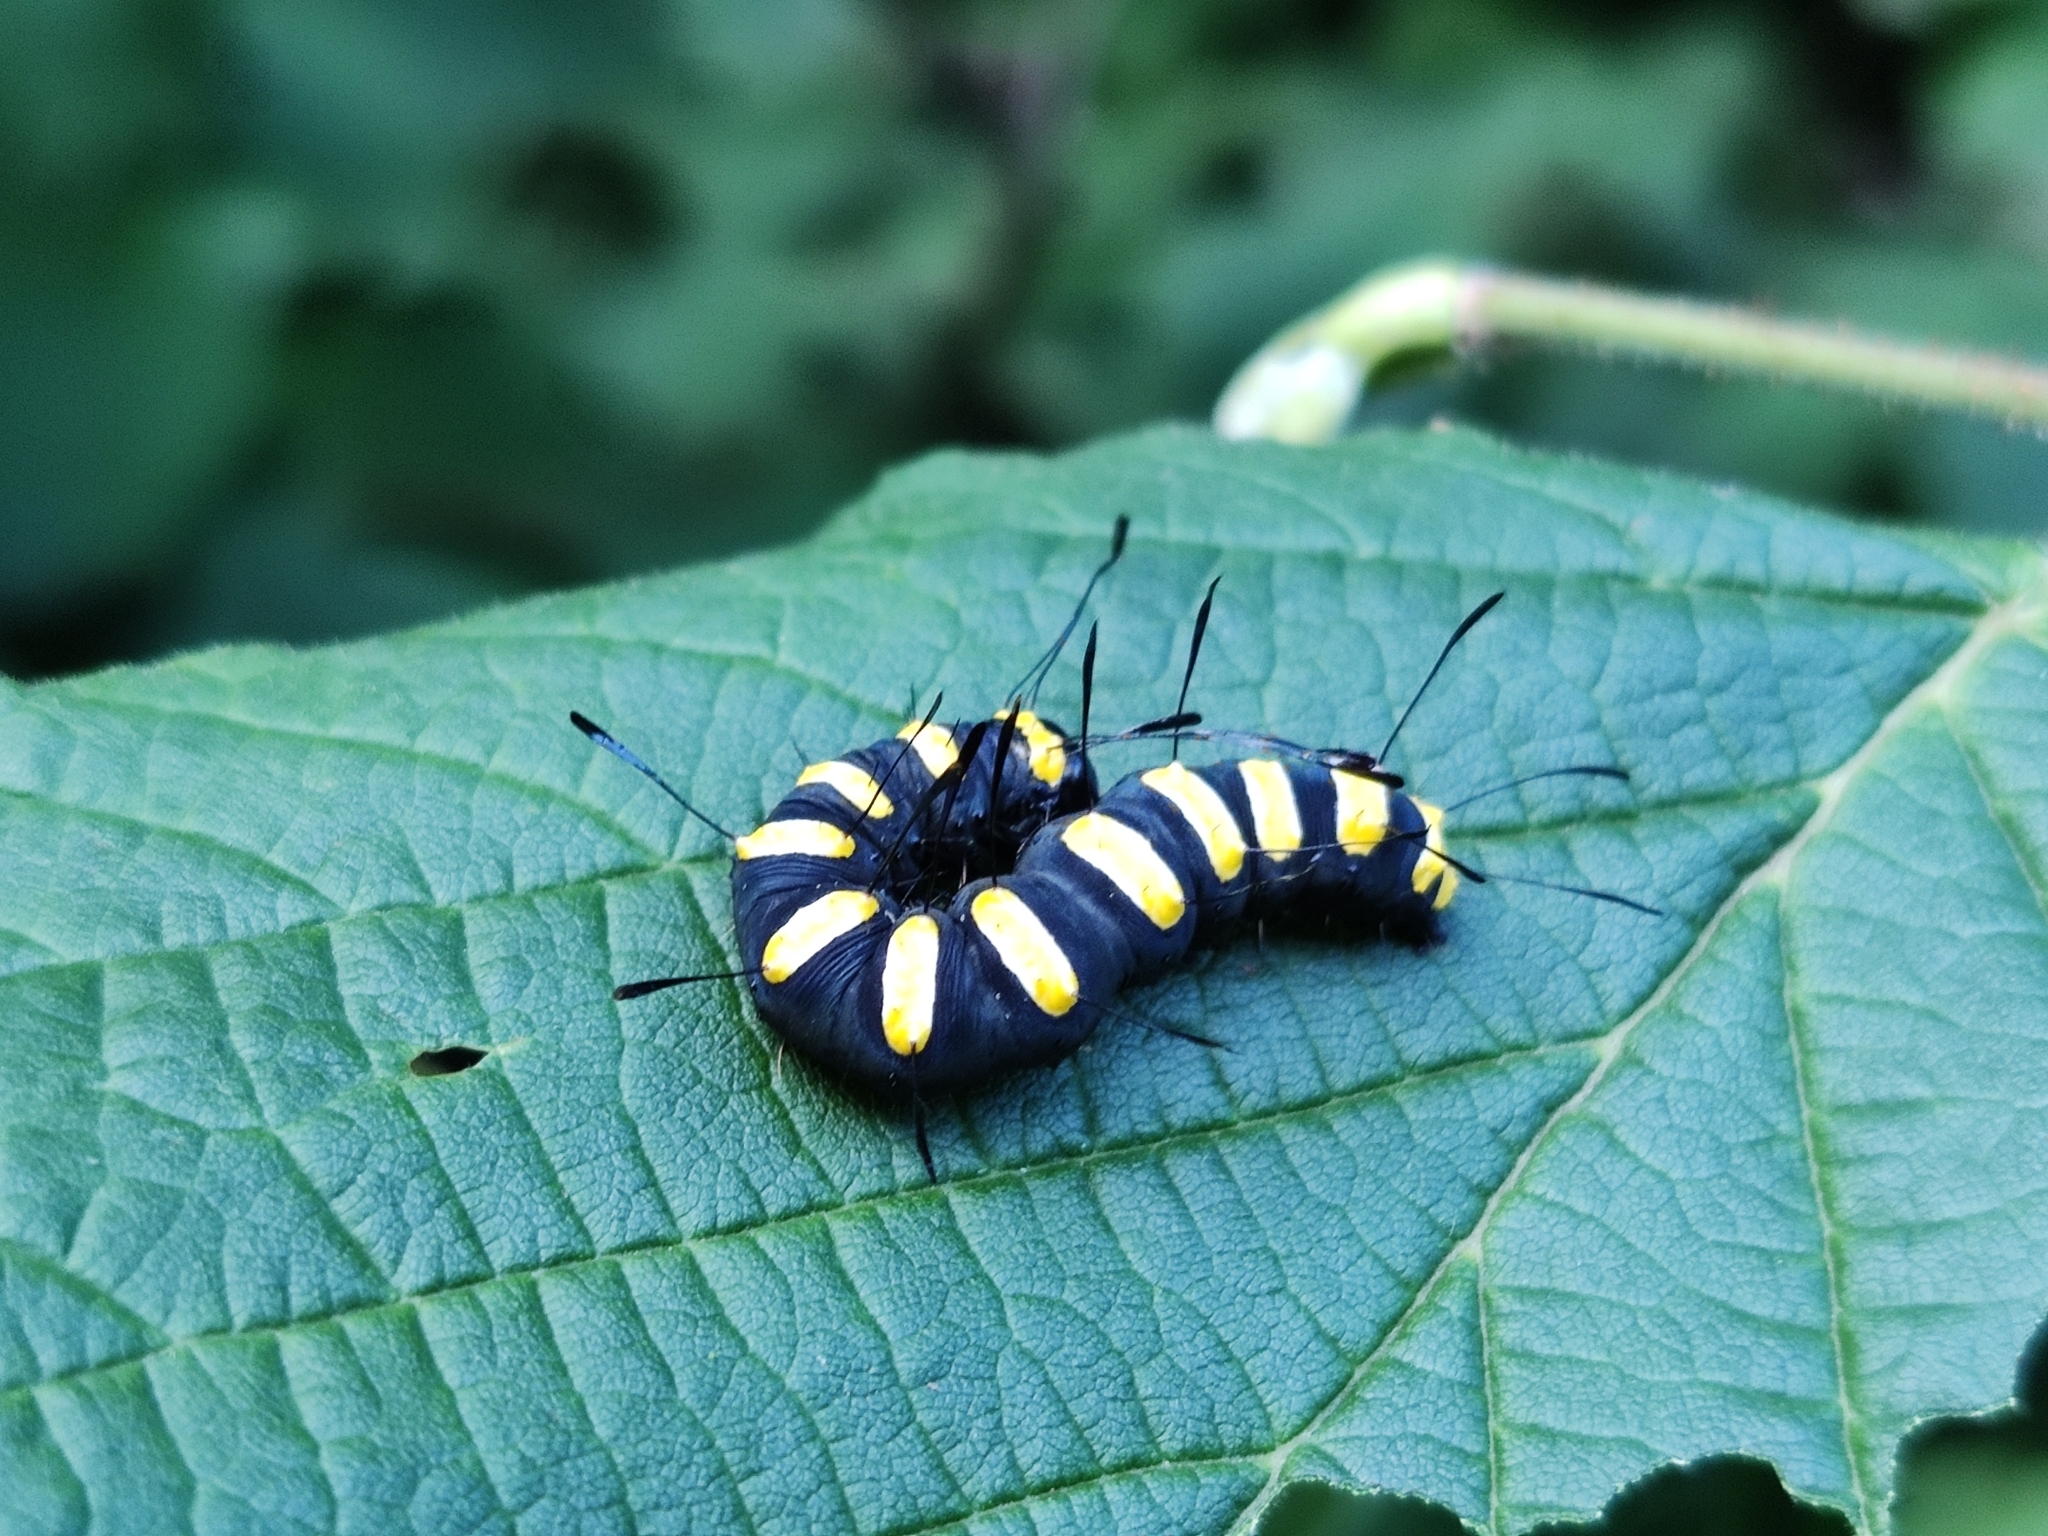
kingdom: Animalia
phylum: Arthropoda
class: Insecta
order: Lepidoptera
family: Noctuidae
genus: Acronicta
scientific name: Acronicta alni
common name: Alder moth
